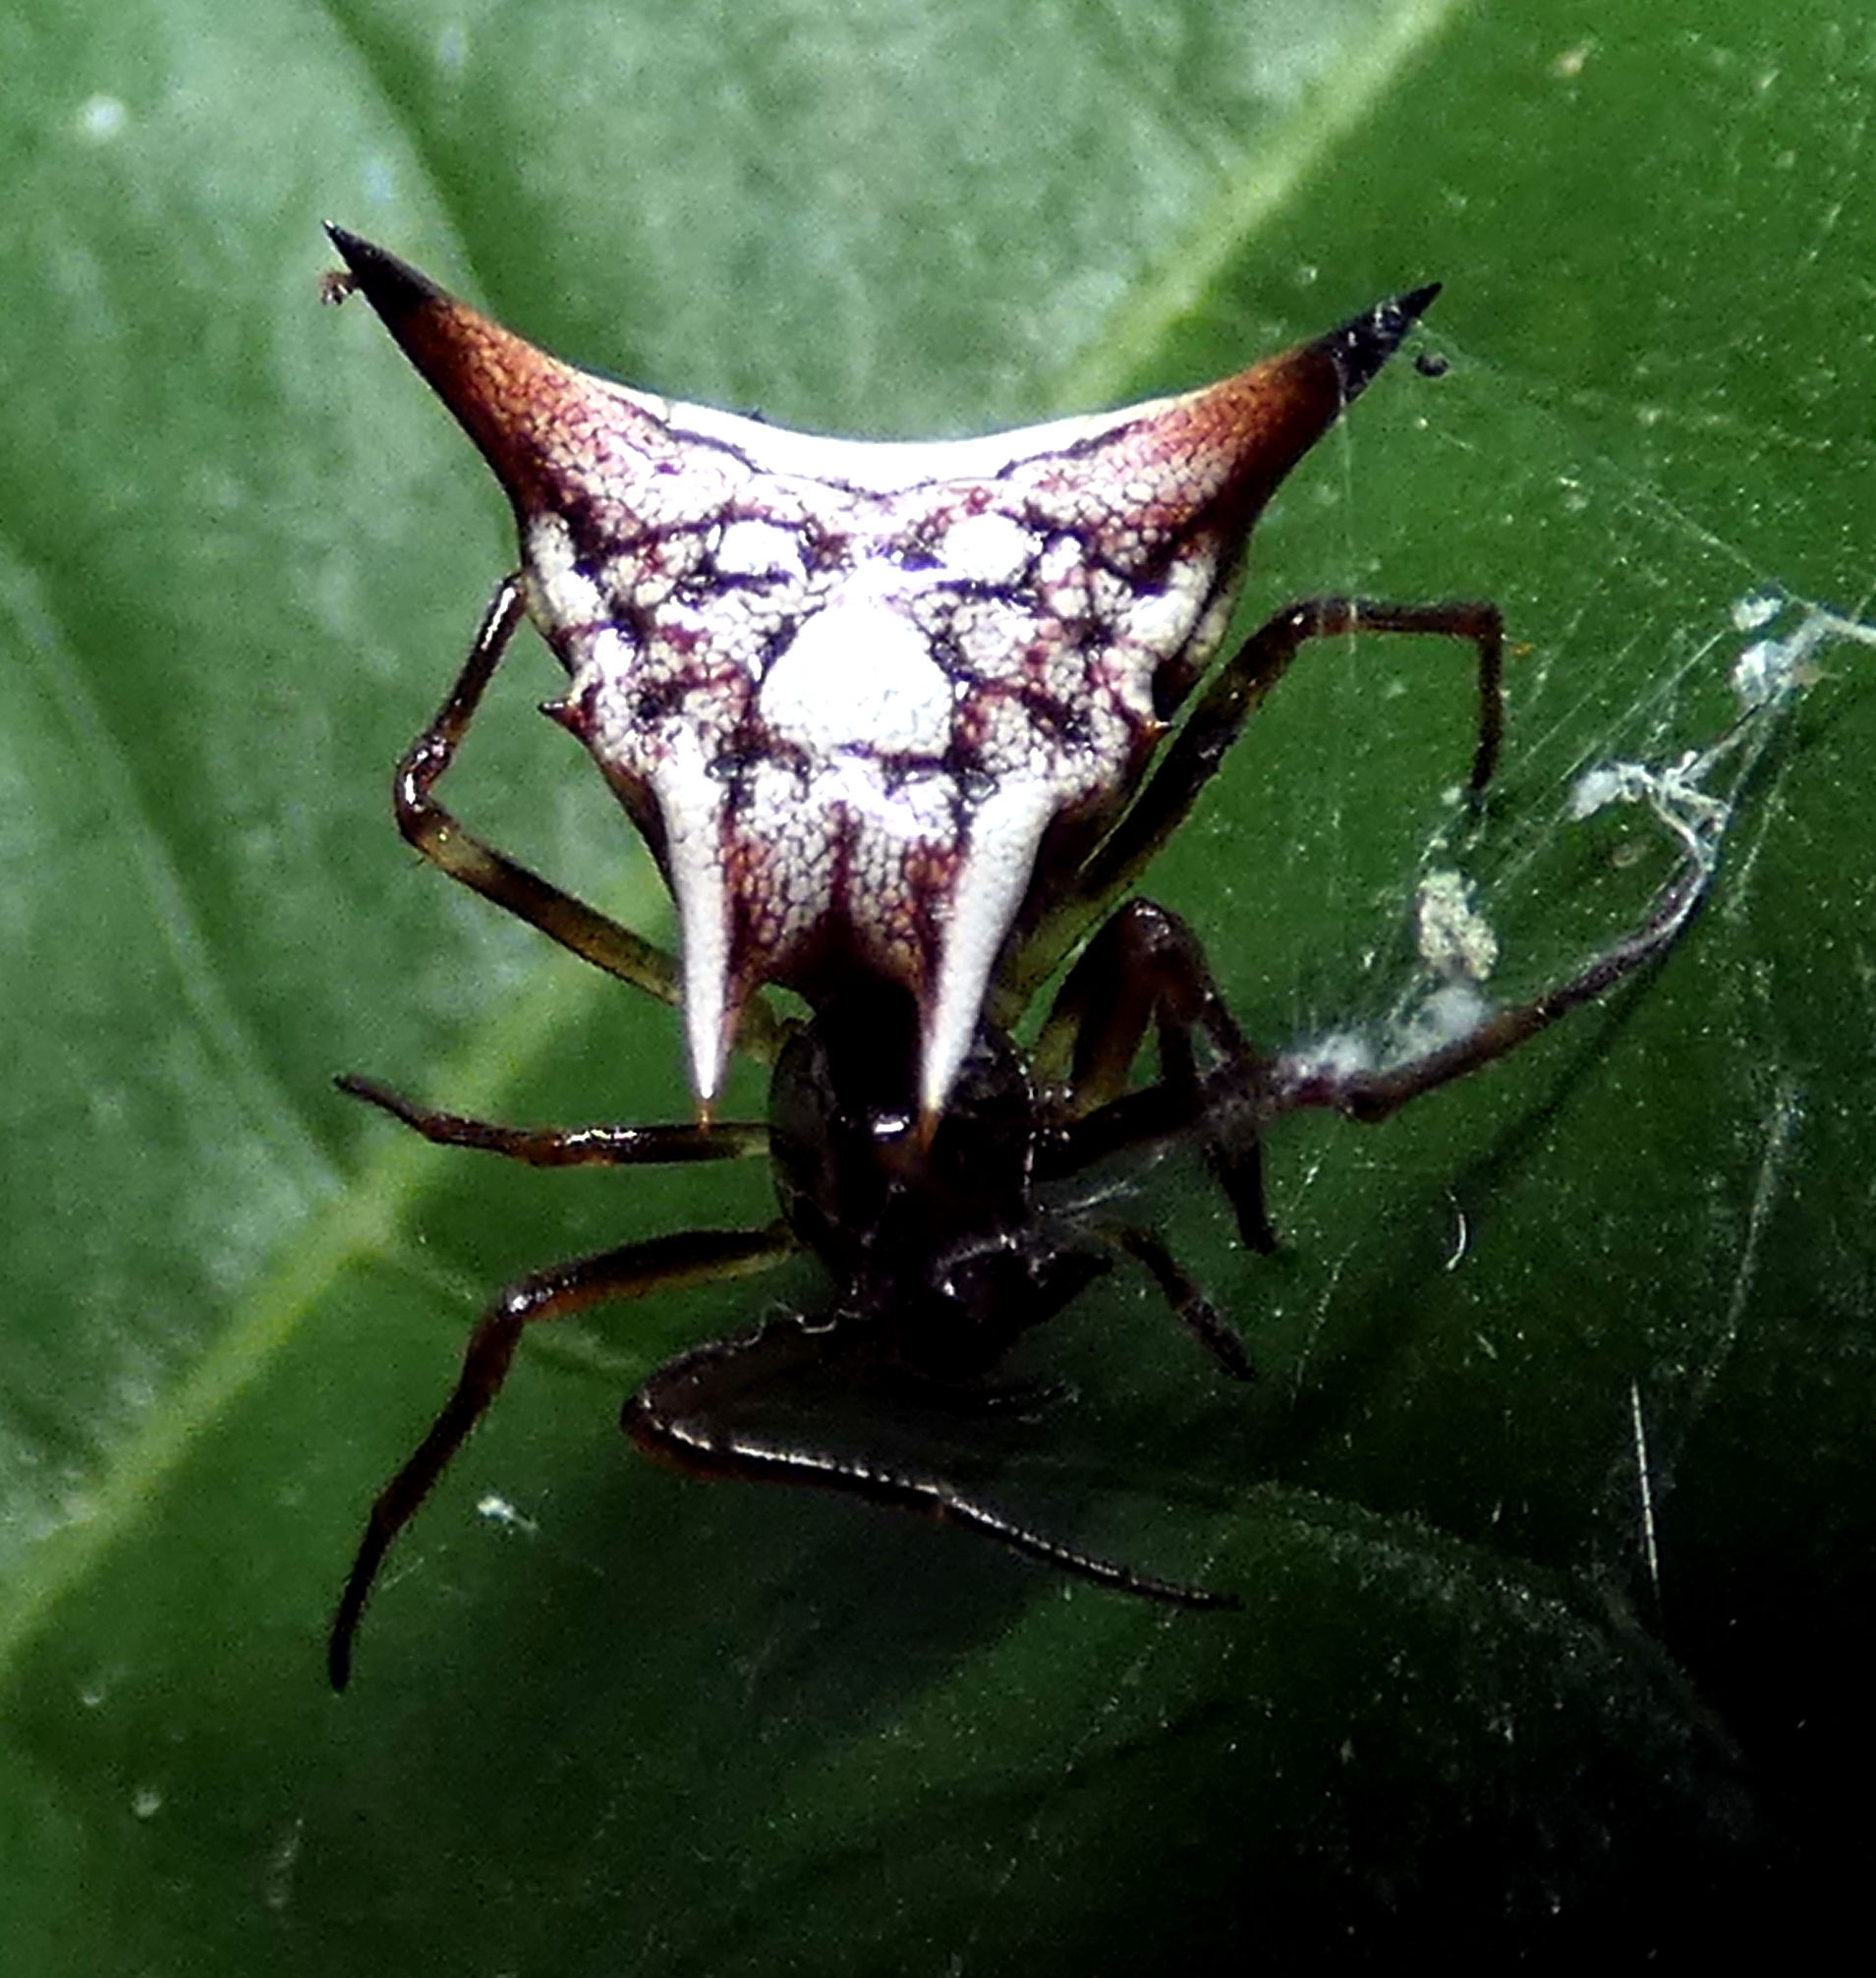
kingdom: Animalia
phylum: Arthropoda
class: Arachnida
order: Araneae
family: Araneidae
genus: Micrathena
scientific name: Micrathena evansi
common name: Orb weavers
